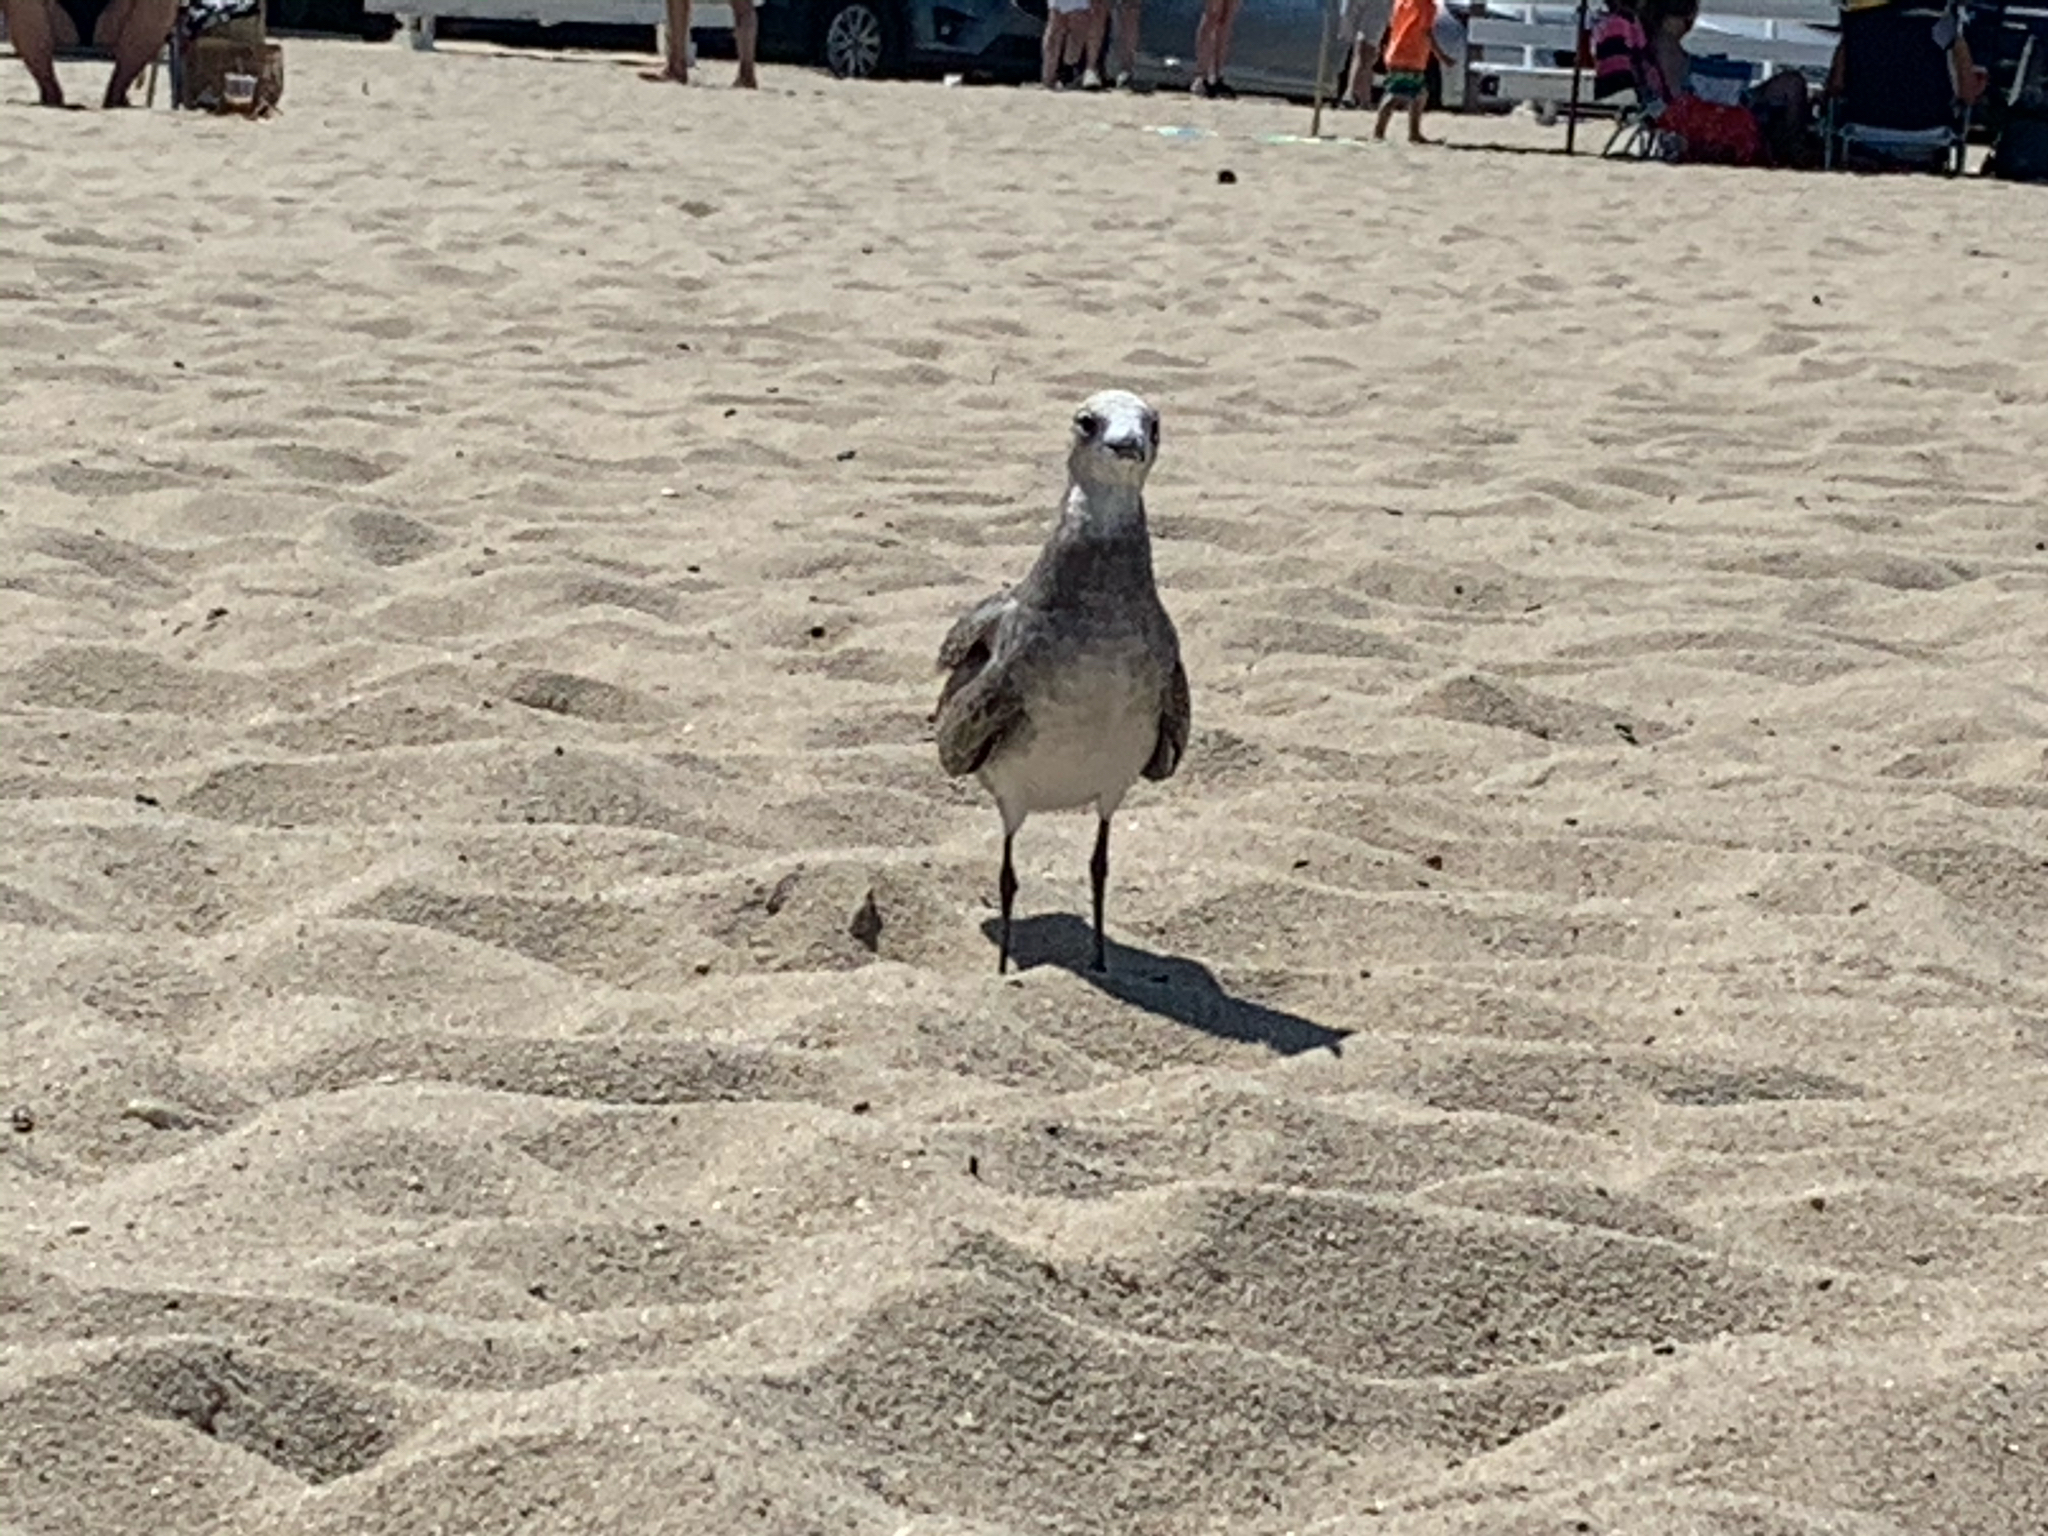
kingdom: Animalia
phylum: Chordata
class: Aves
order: Charadriiformes
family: Laridae
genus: Leucophaeus
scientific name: Leucophaeus atricilla
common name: Laughing gull
